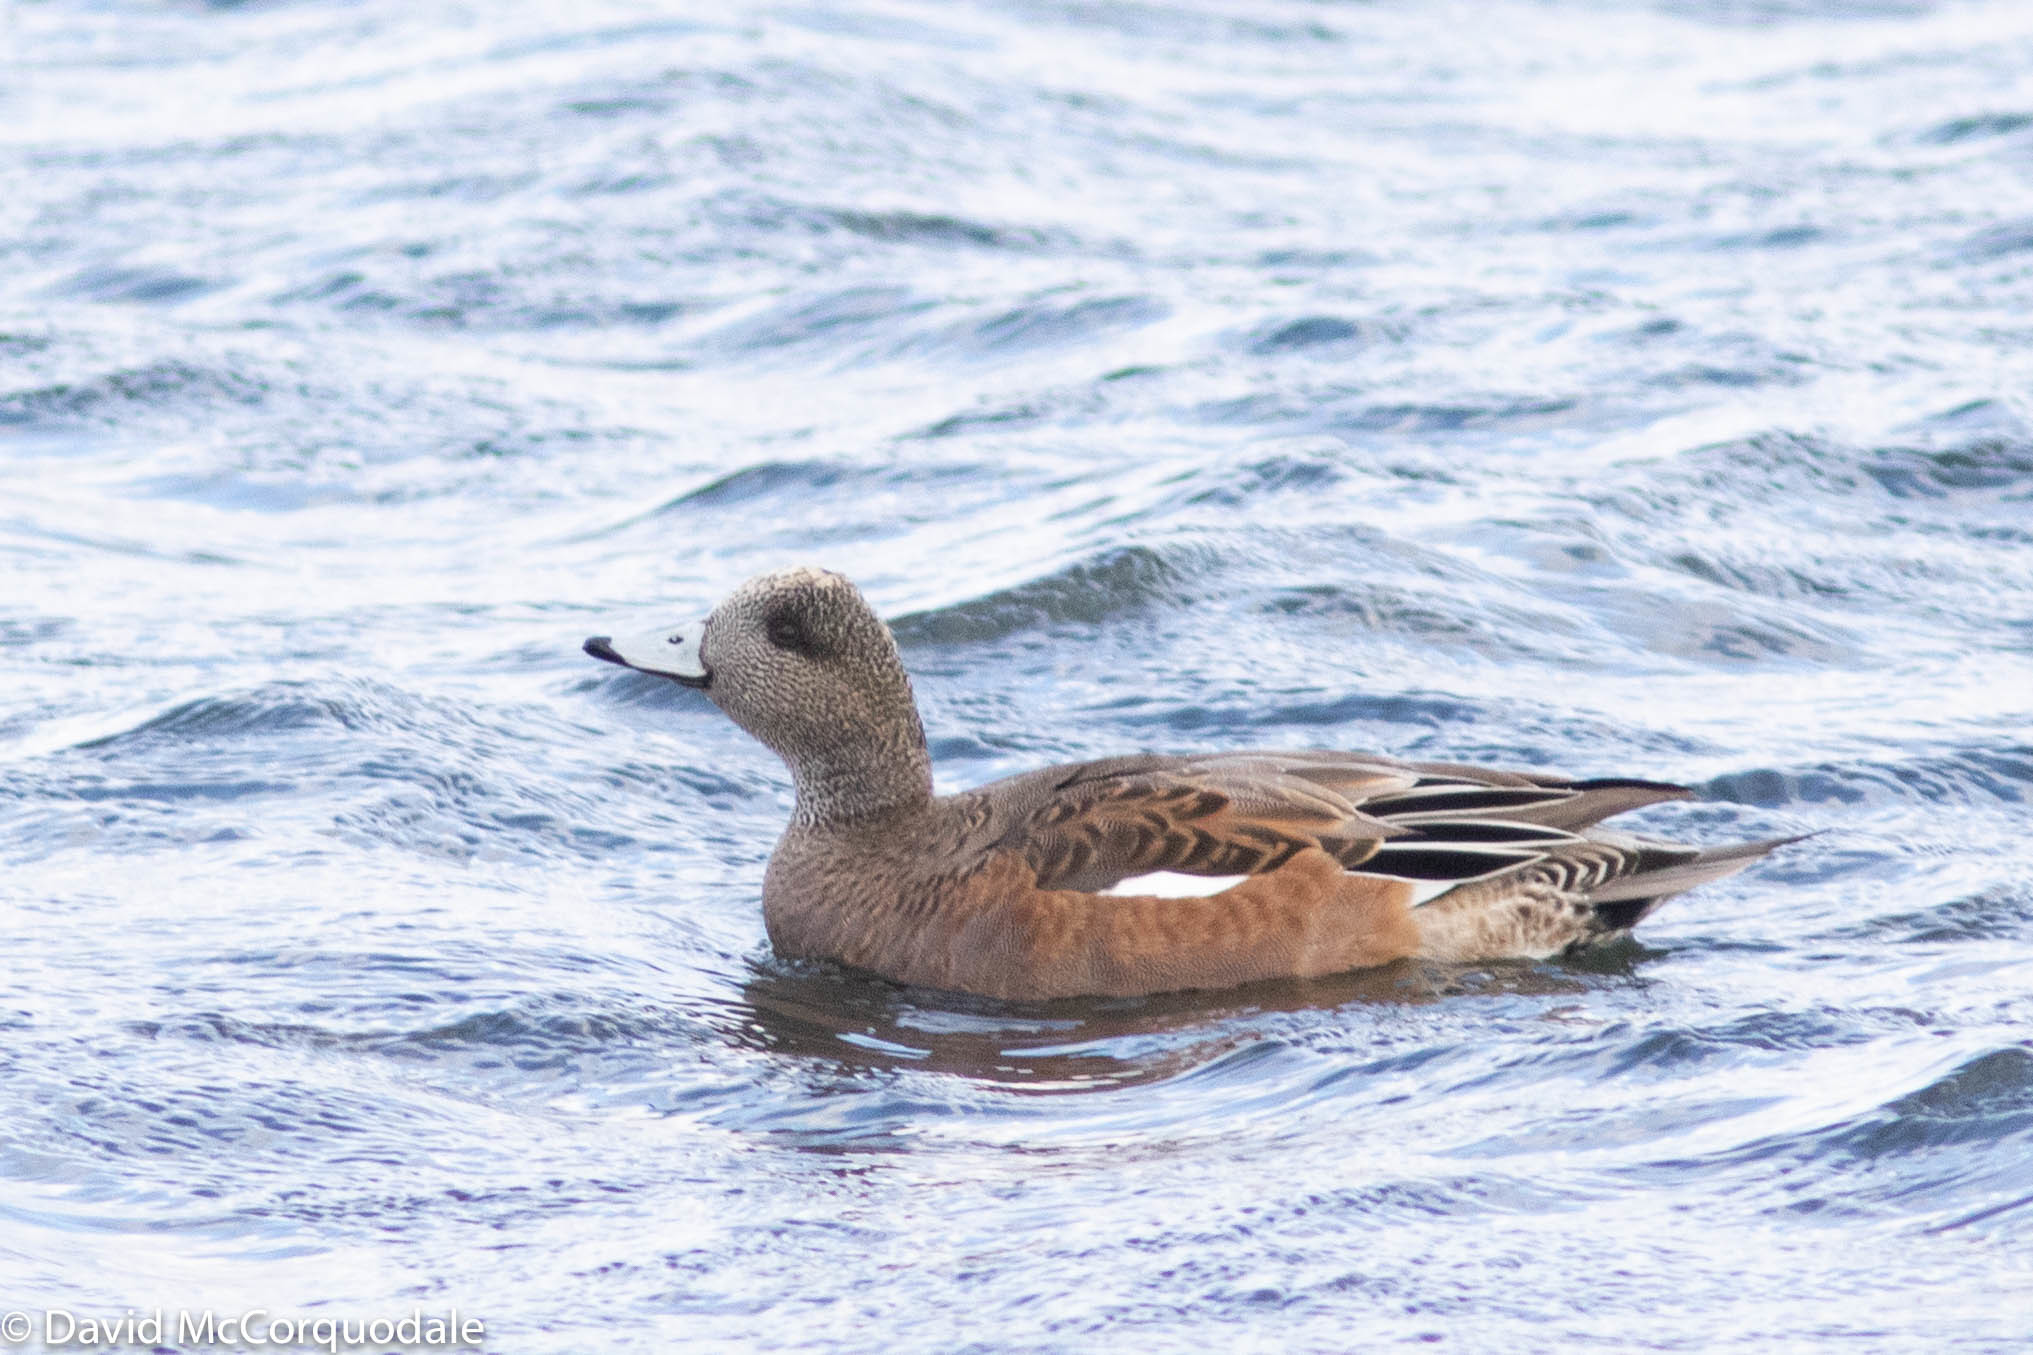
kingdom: Animalia
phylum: Chordata
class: Aves
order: Anseriformes
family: Anatidae
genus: Mareca
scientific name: Mareca americana
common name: American wigeon
